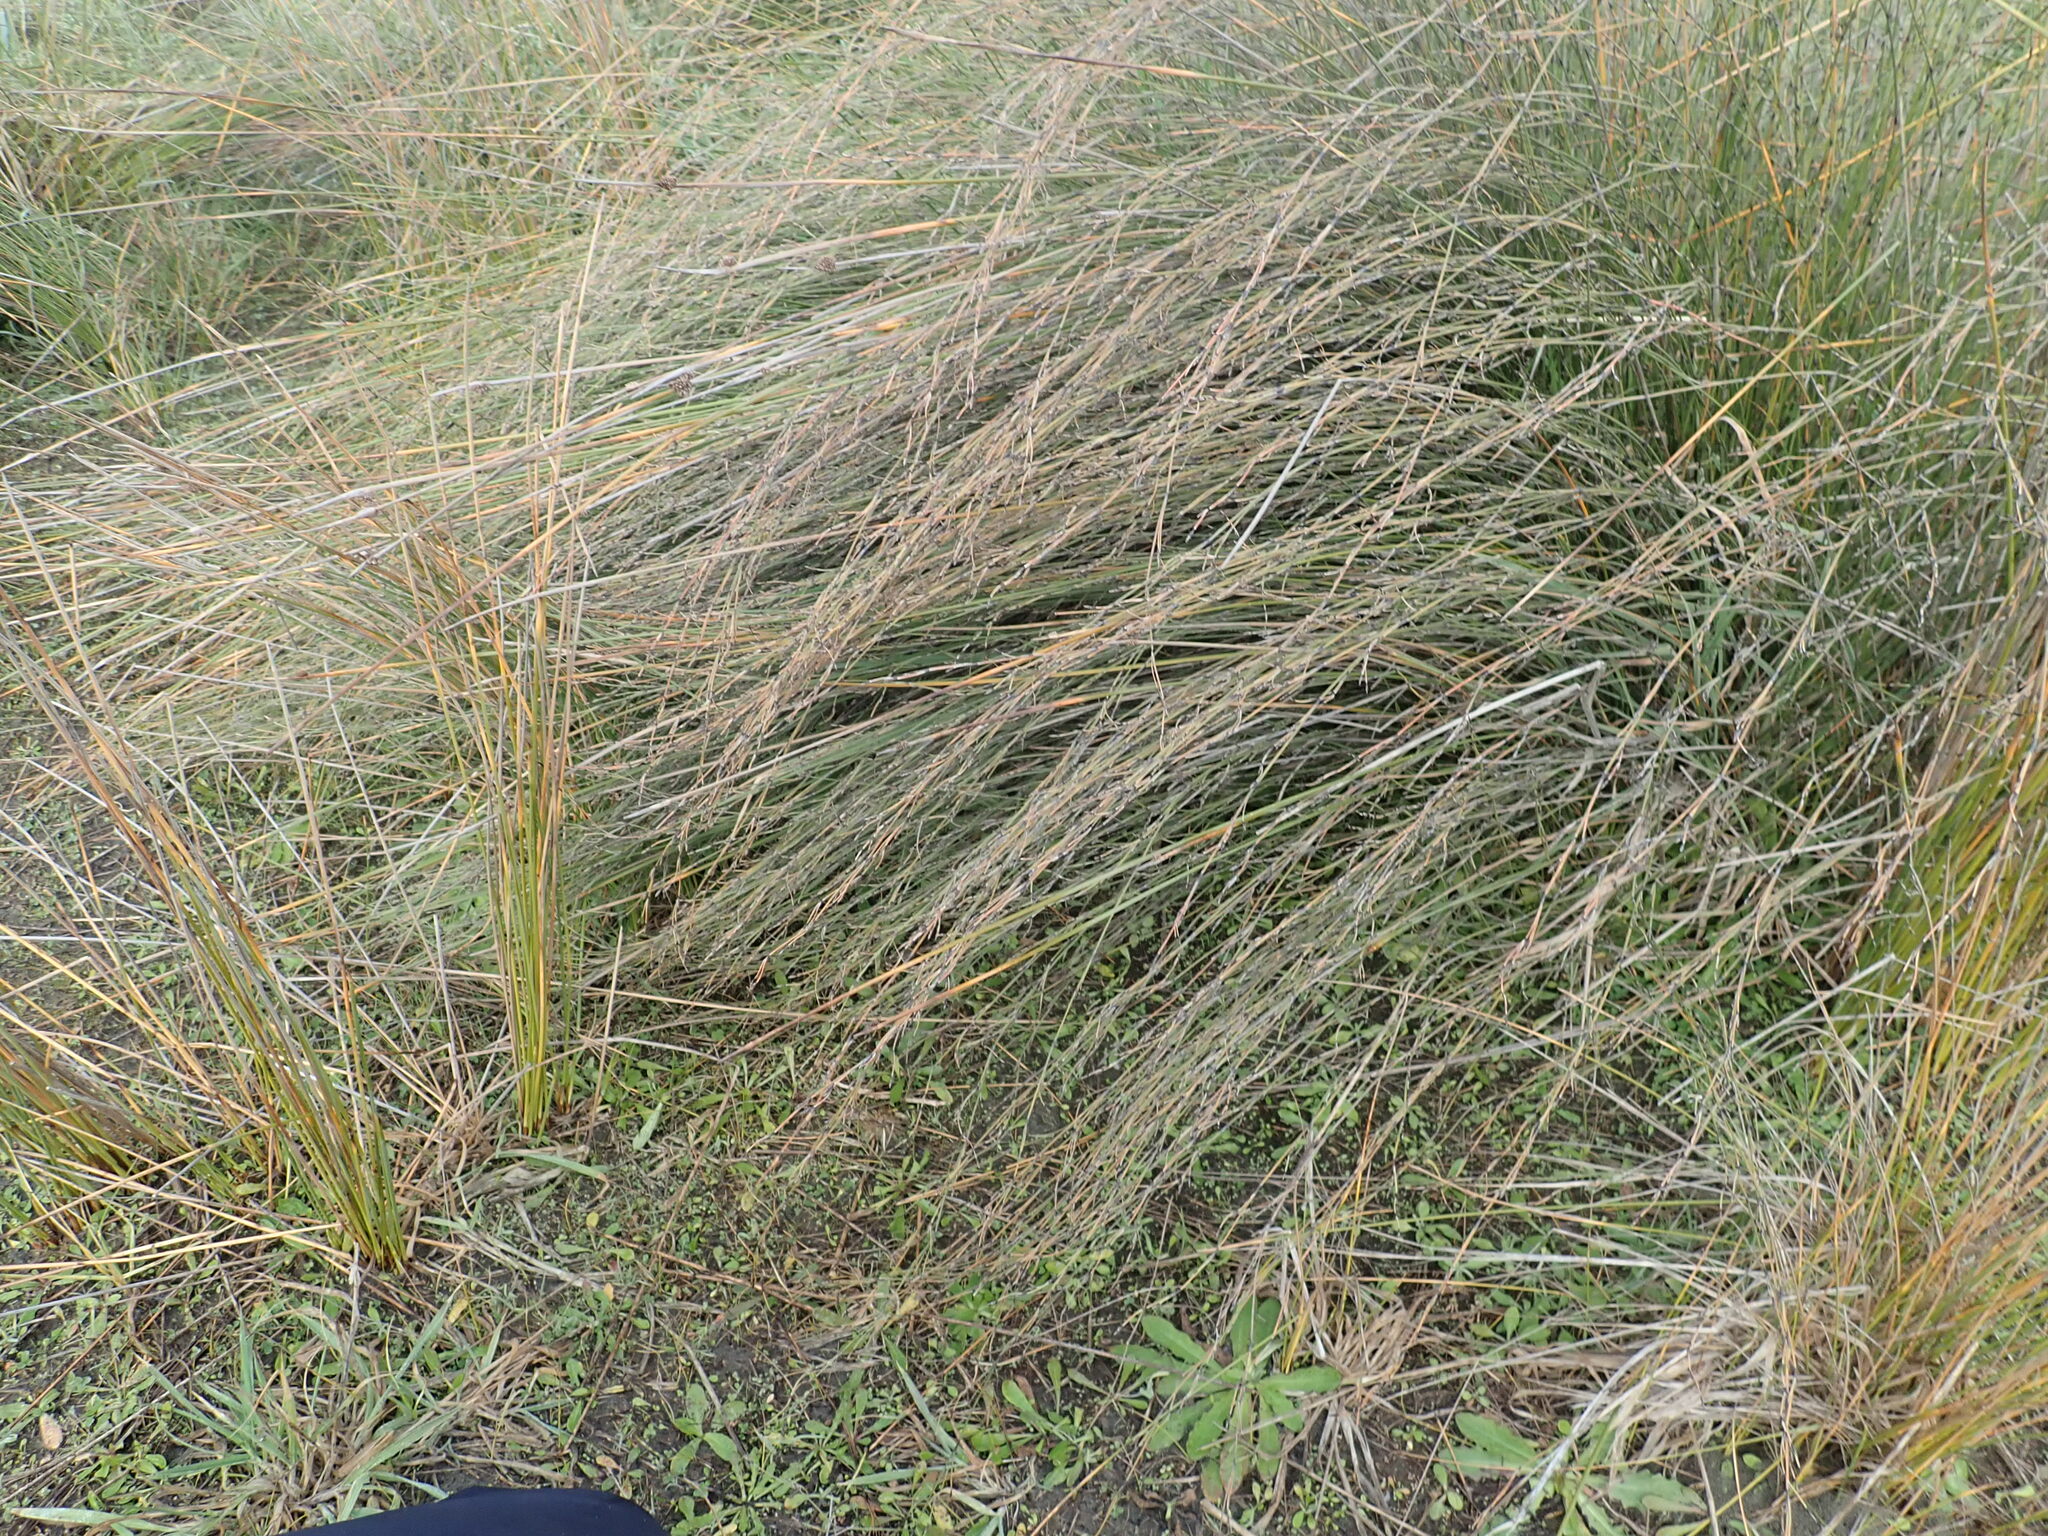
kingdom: Plantae
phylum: Tracheophyta
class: Liliopsida
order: Poales
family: Restionaceae
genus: Apodasmia
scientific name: Apodasmia similis
